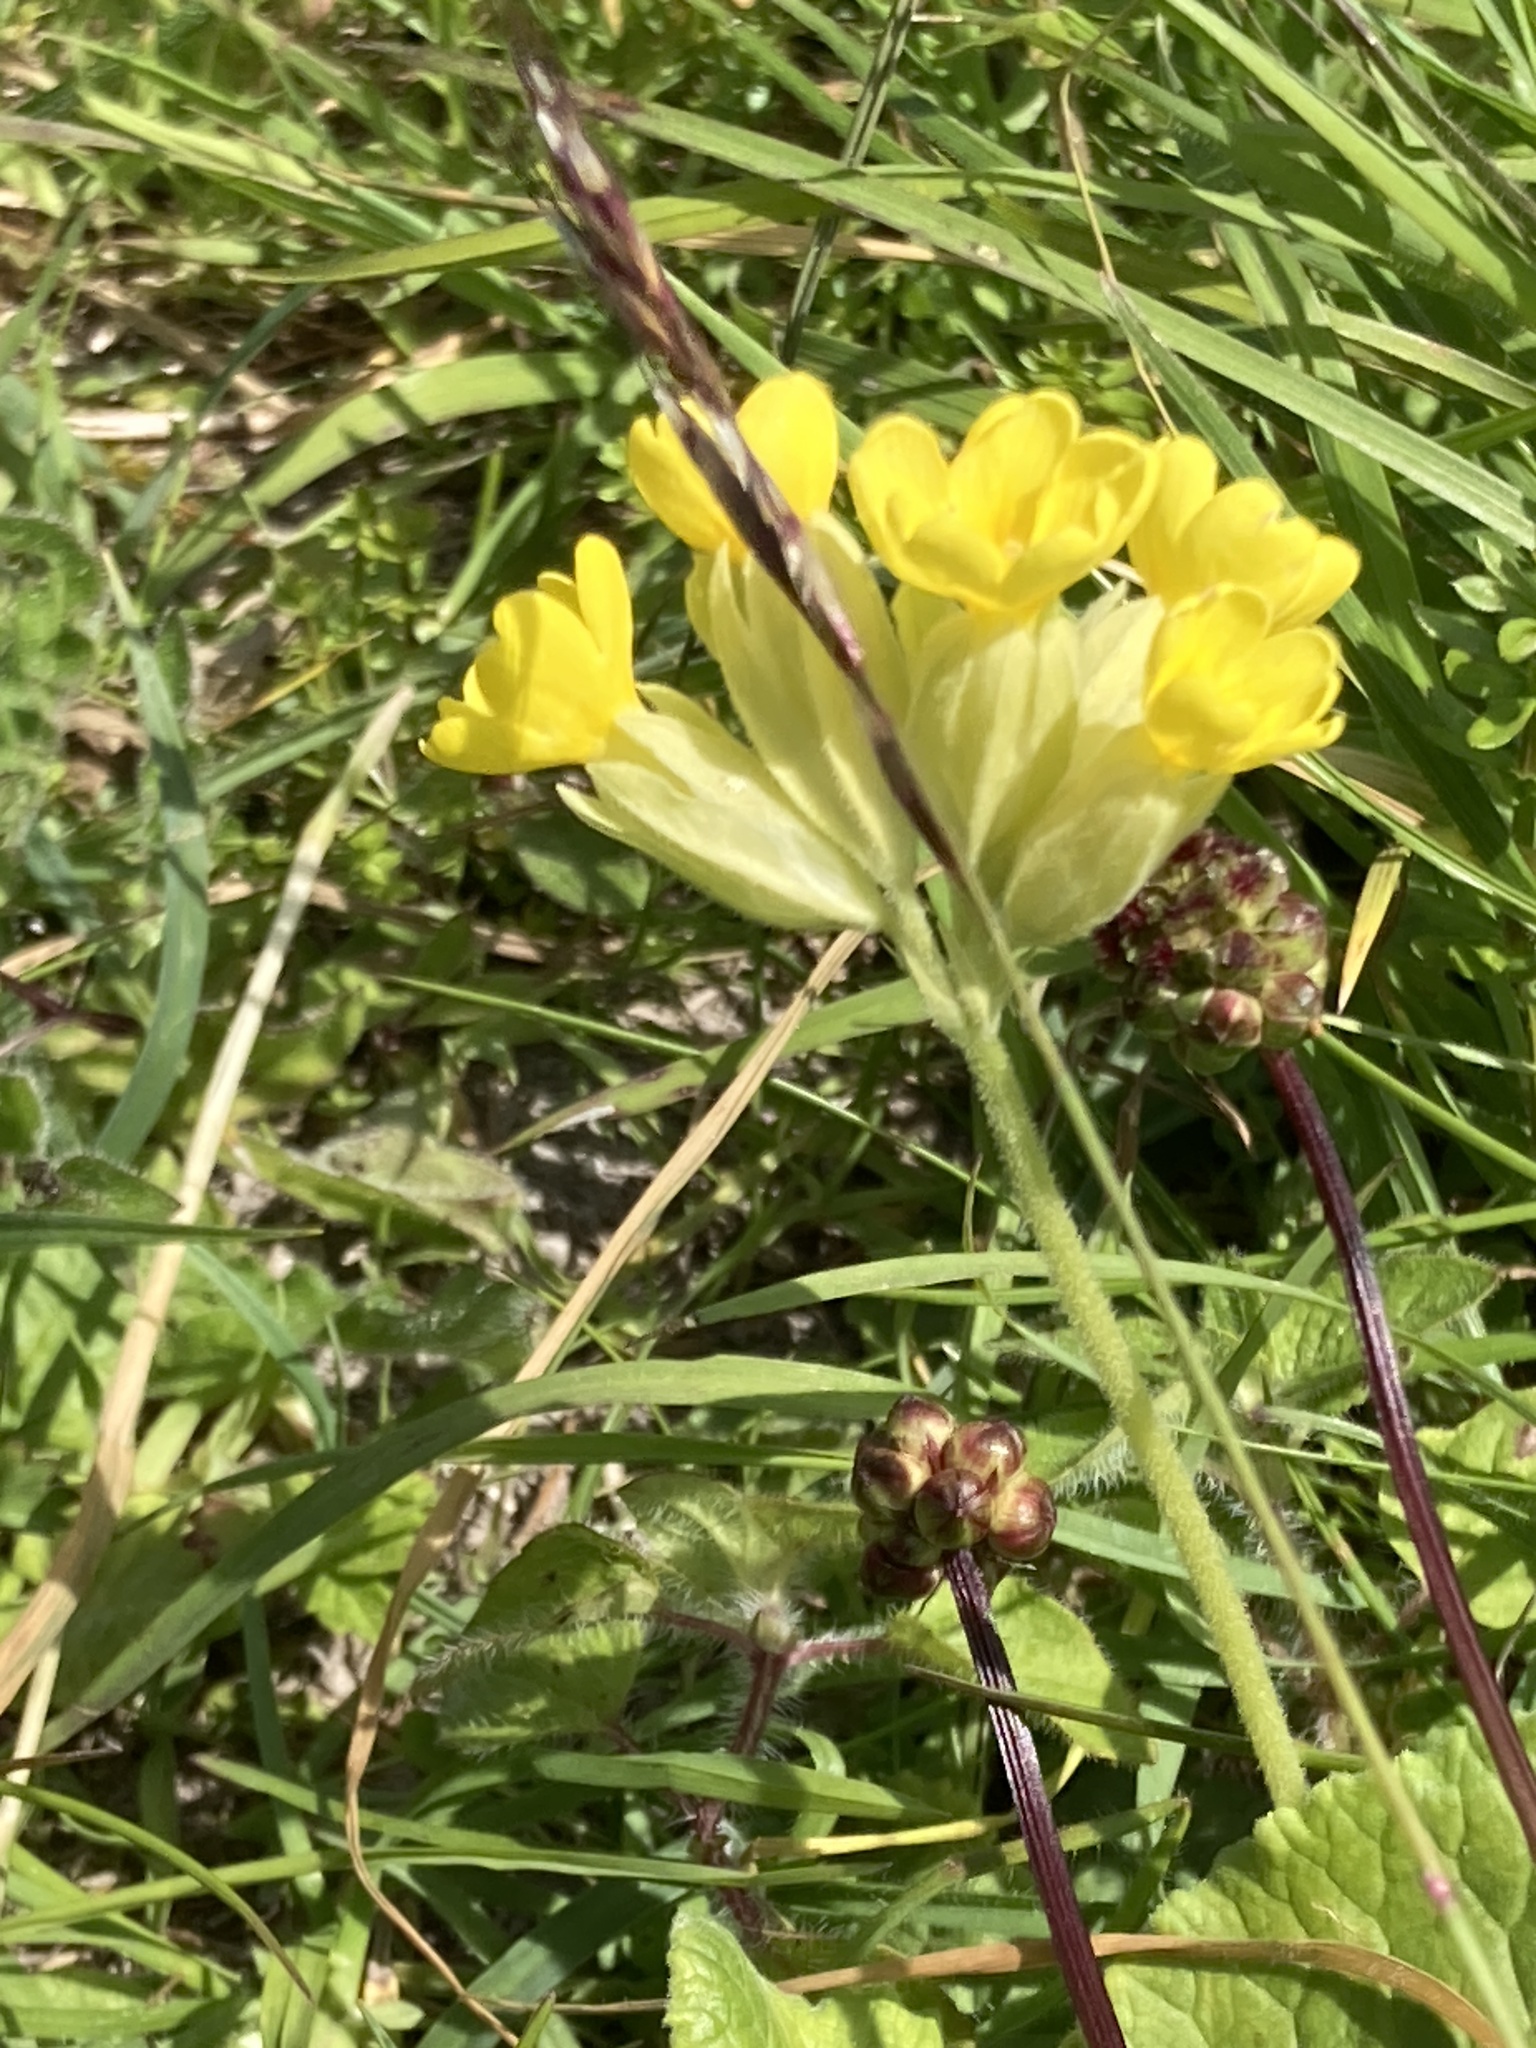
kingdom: Plantae
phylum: Tracheophyta
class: Magnoliopsida
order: Ericales
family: Primulaceae
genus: Primula
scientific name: Primula veris
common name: Cowslip
